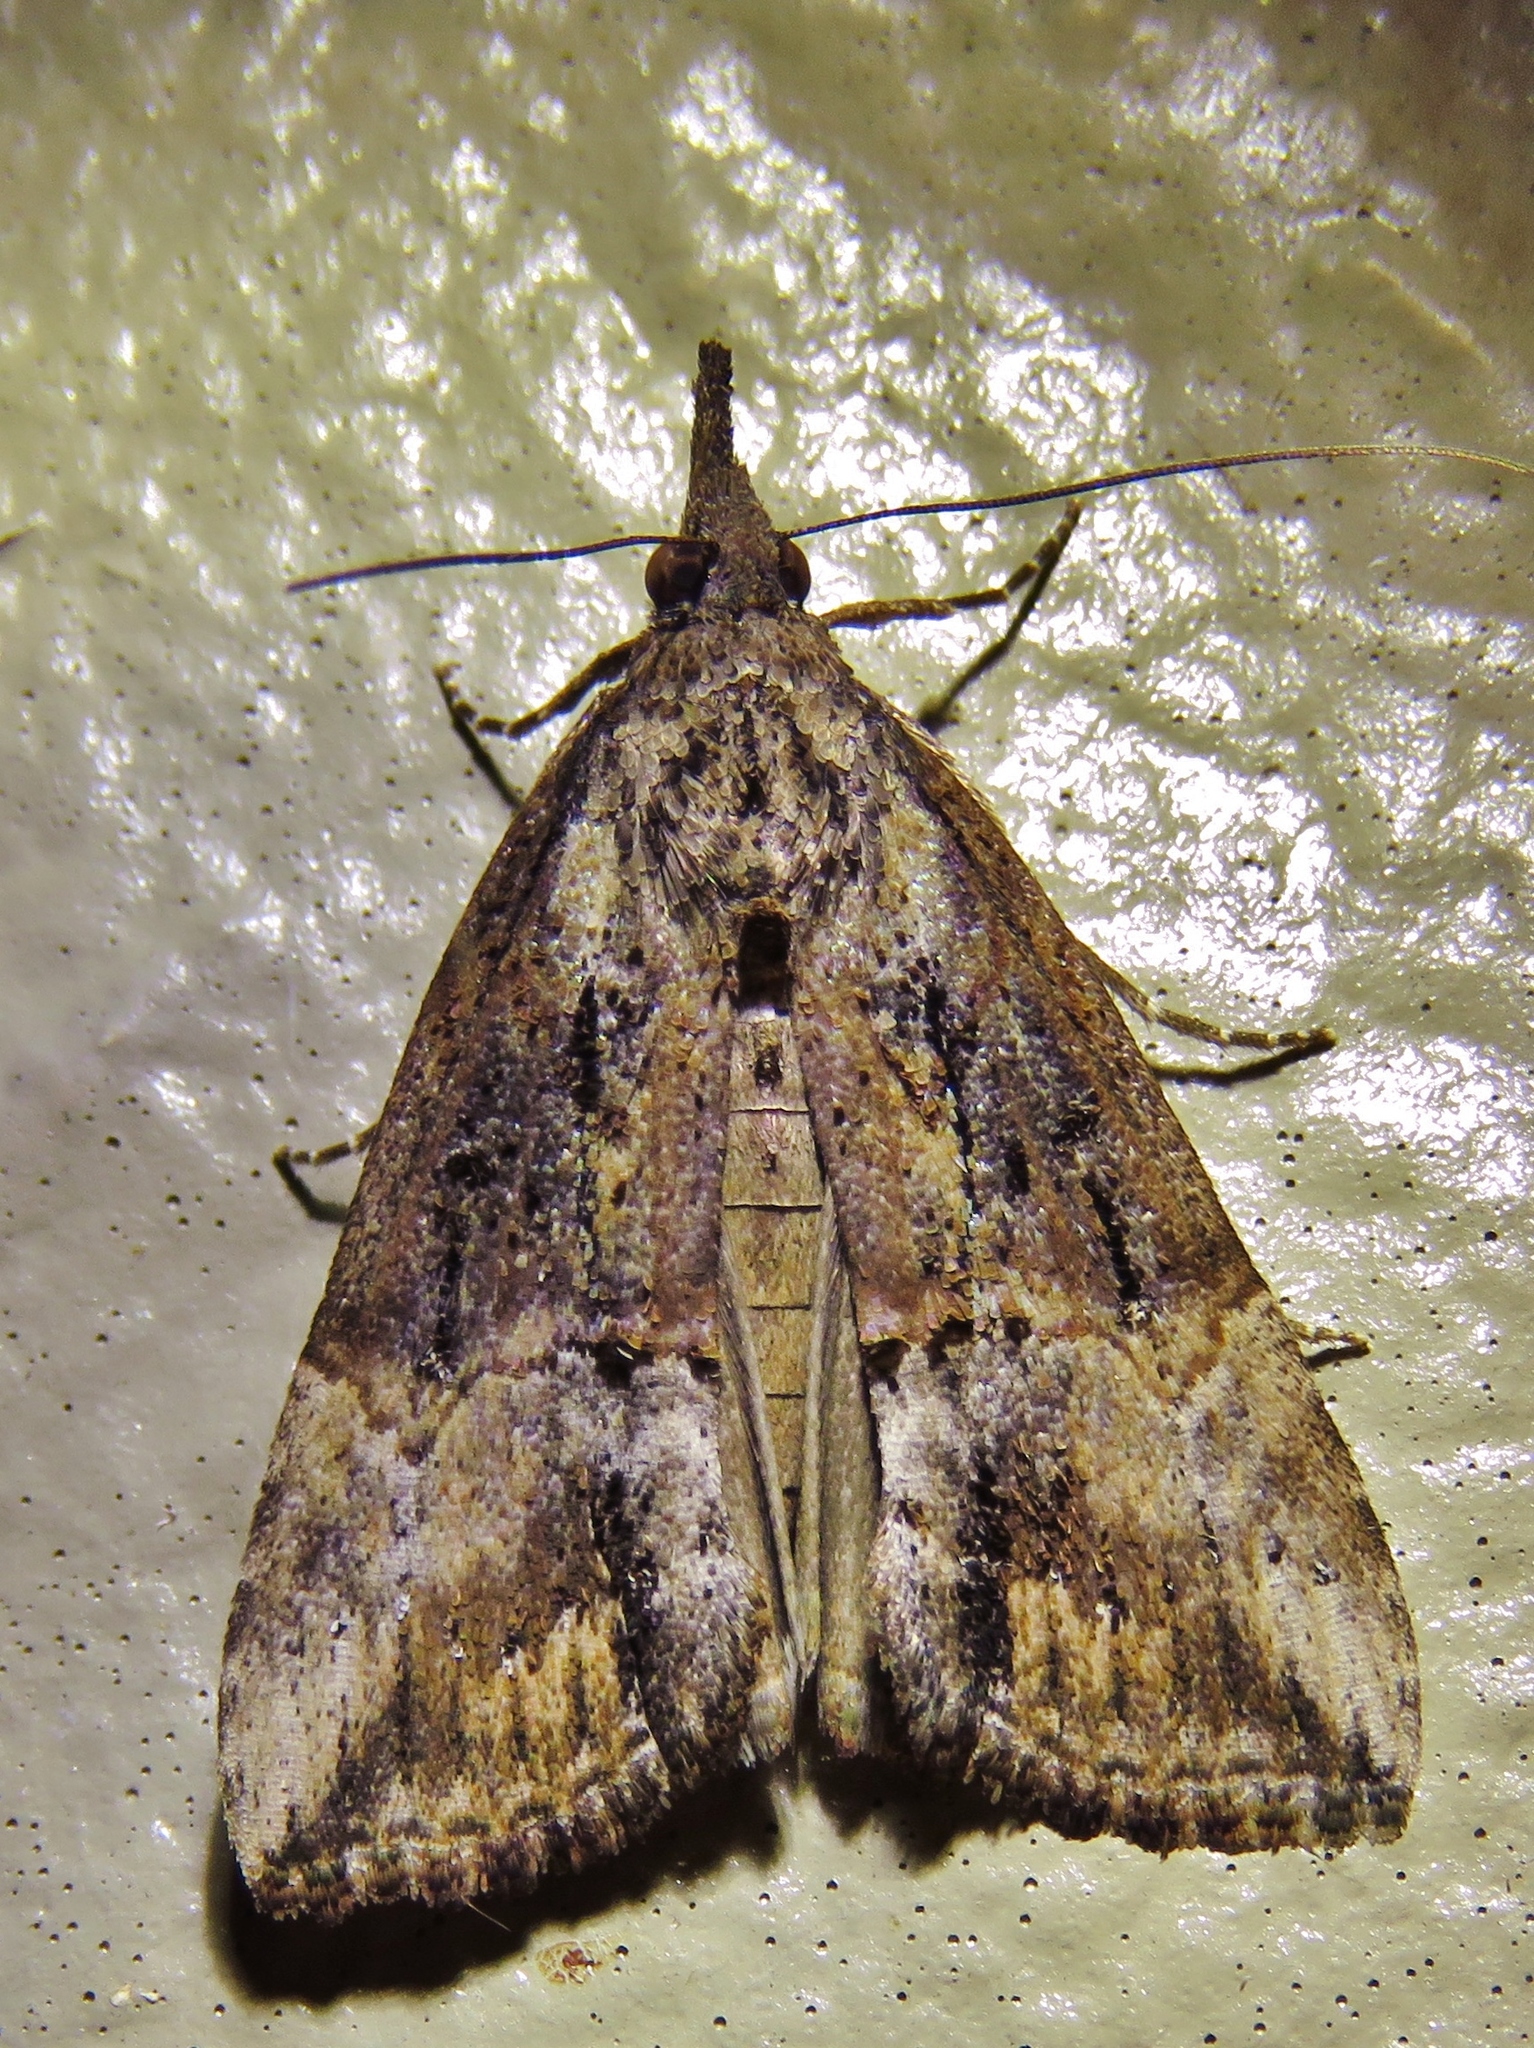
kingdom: Animalia
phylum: Arthropoda
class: Insecta
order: Lepidoptera
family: Erebidae
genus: Hypena
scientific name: Hypena scabra
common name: Green cloverworm
